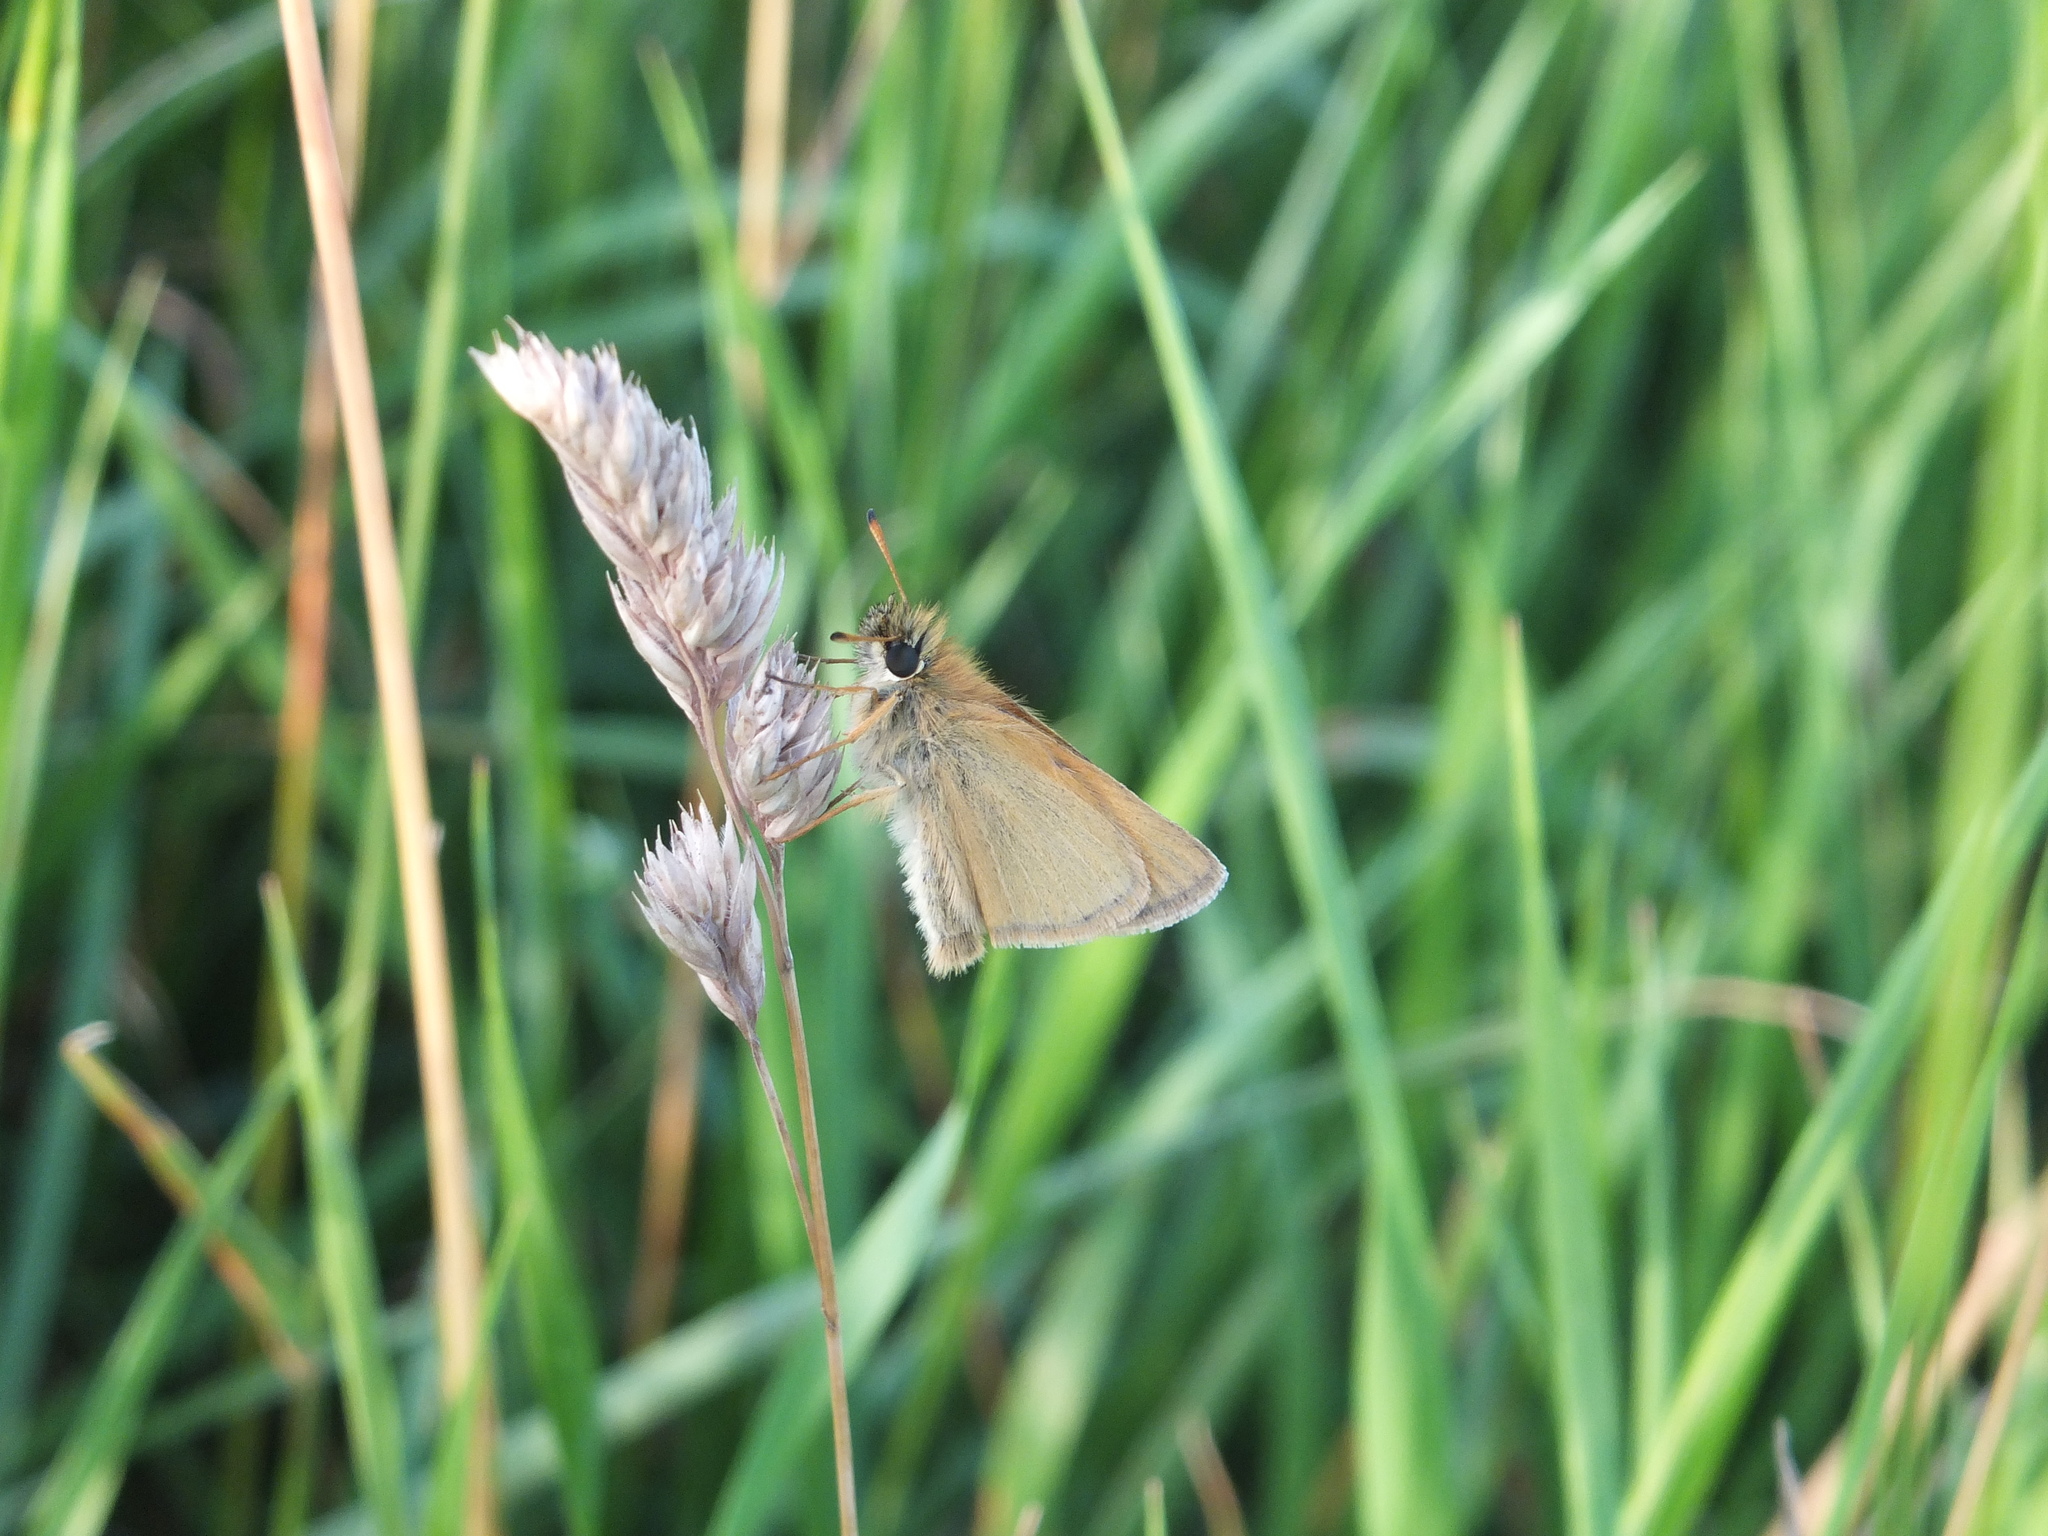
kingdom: Animalia
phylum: Arthropoda
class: Insecta
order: Lepidoptera
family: Hesperiidae
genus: Thymelicus
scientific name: Thymelicus lineola
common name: Essex skipper
